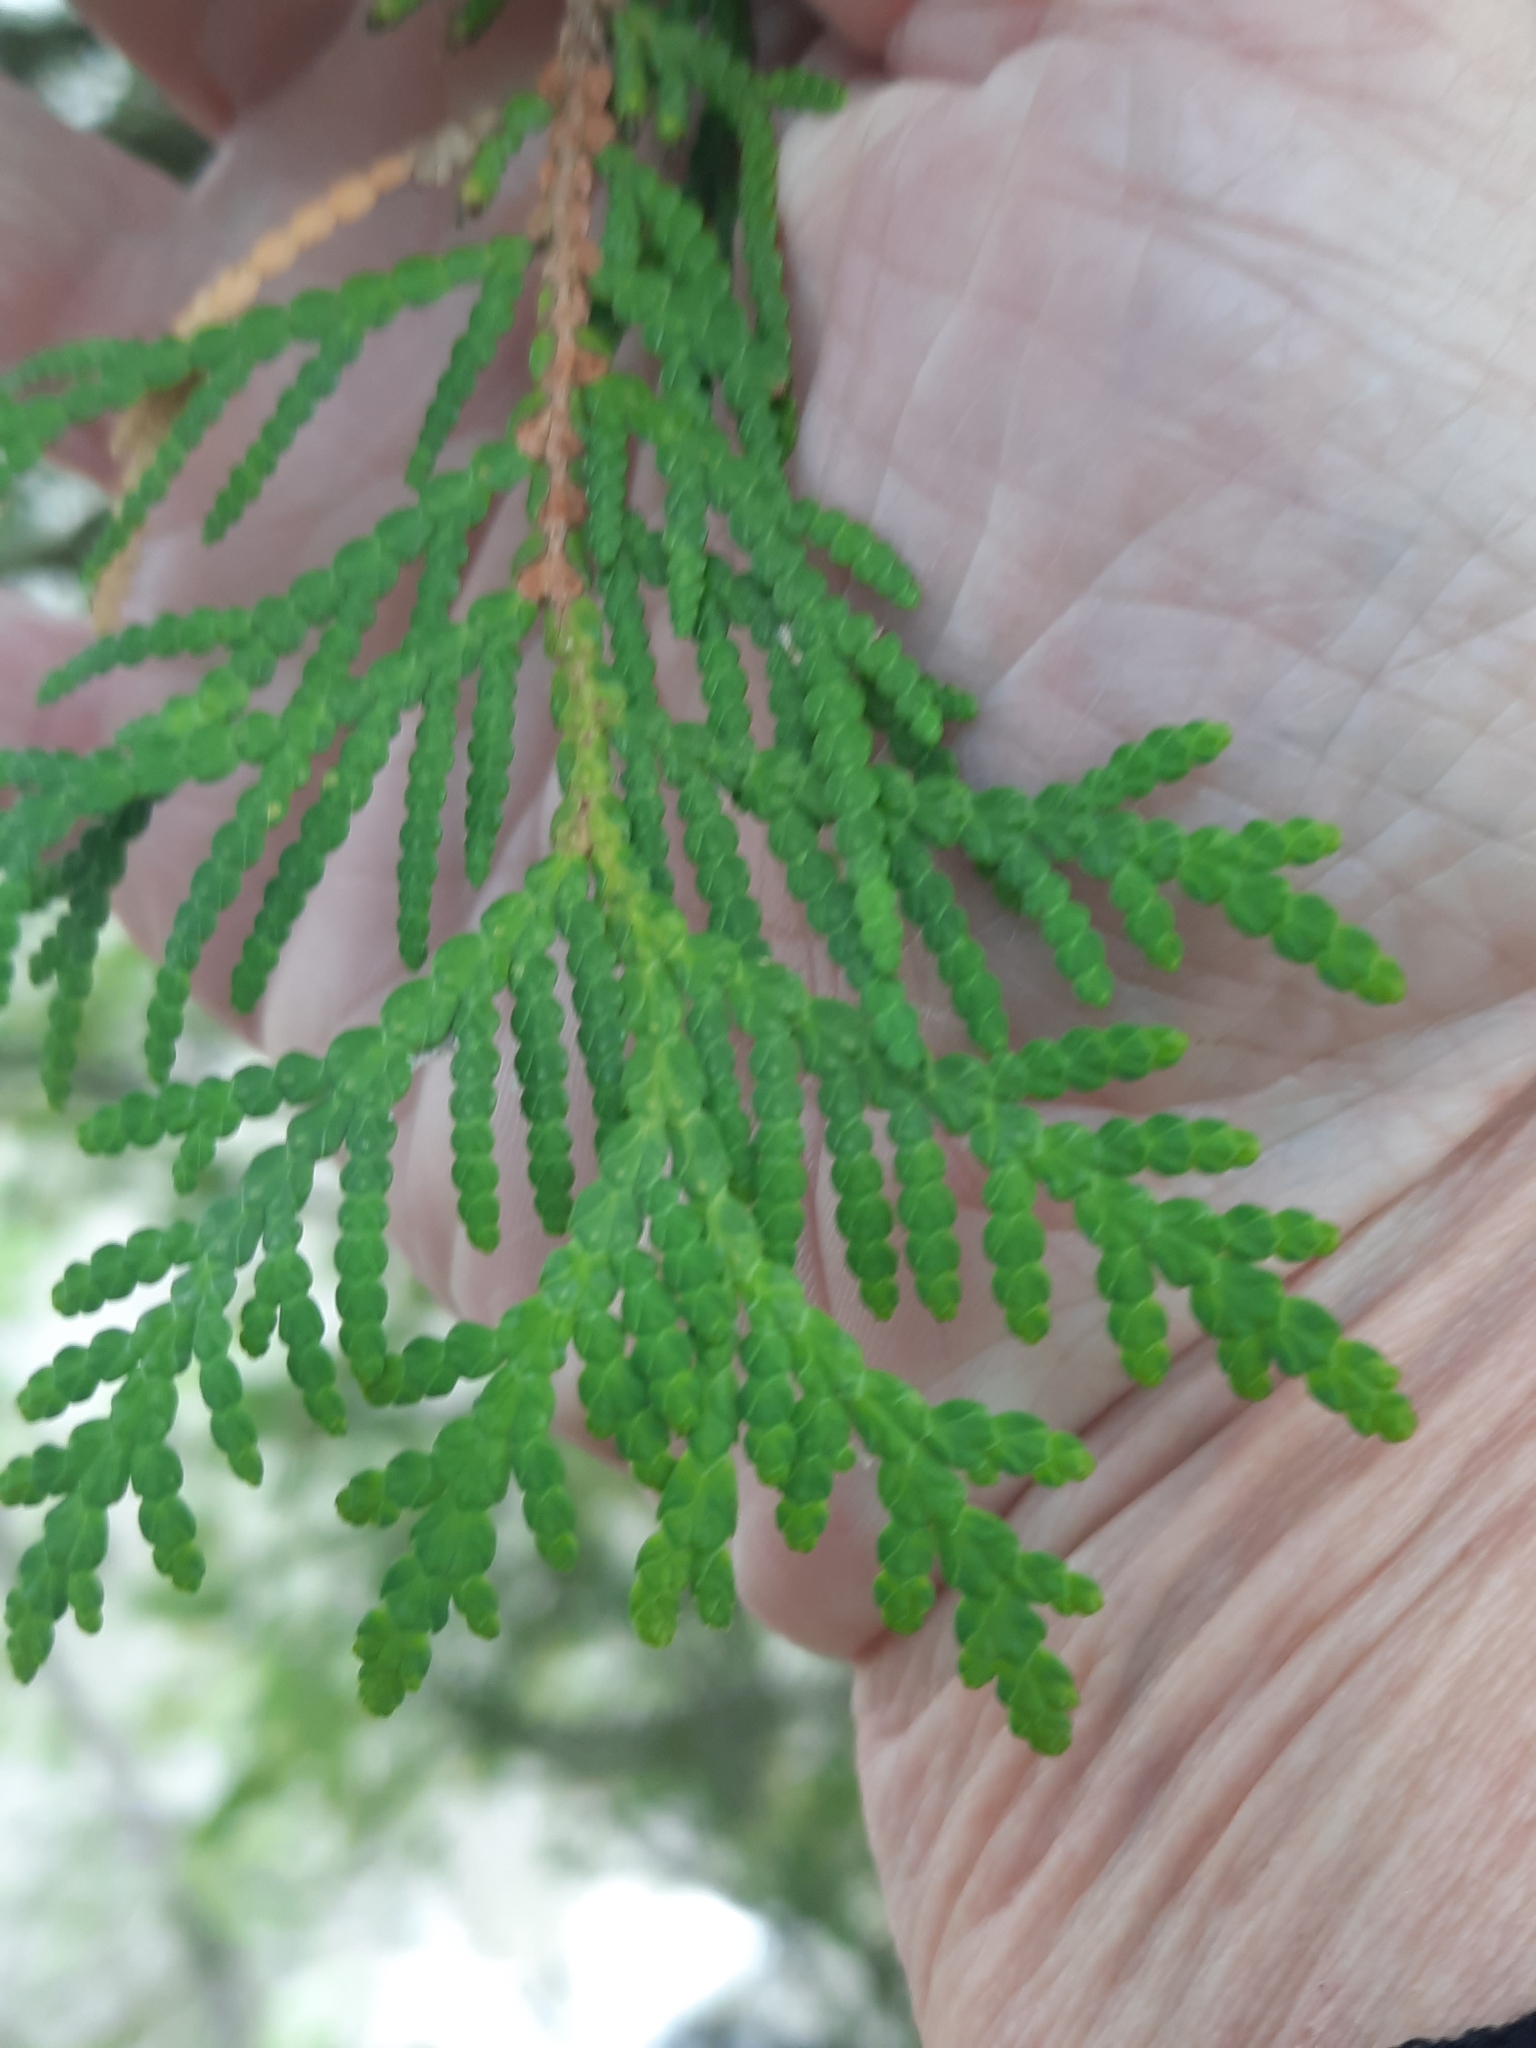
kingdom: Plantae
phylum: Tracheophyta
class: Pinopsida
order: Pinales
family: Cupressaceae
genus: Thuja
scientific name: Thuja occidentalis
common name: Northern white-cedar
